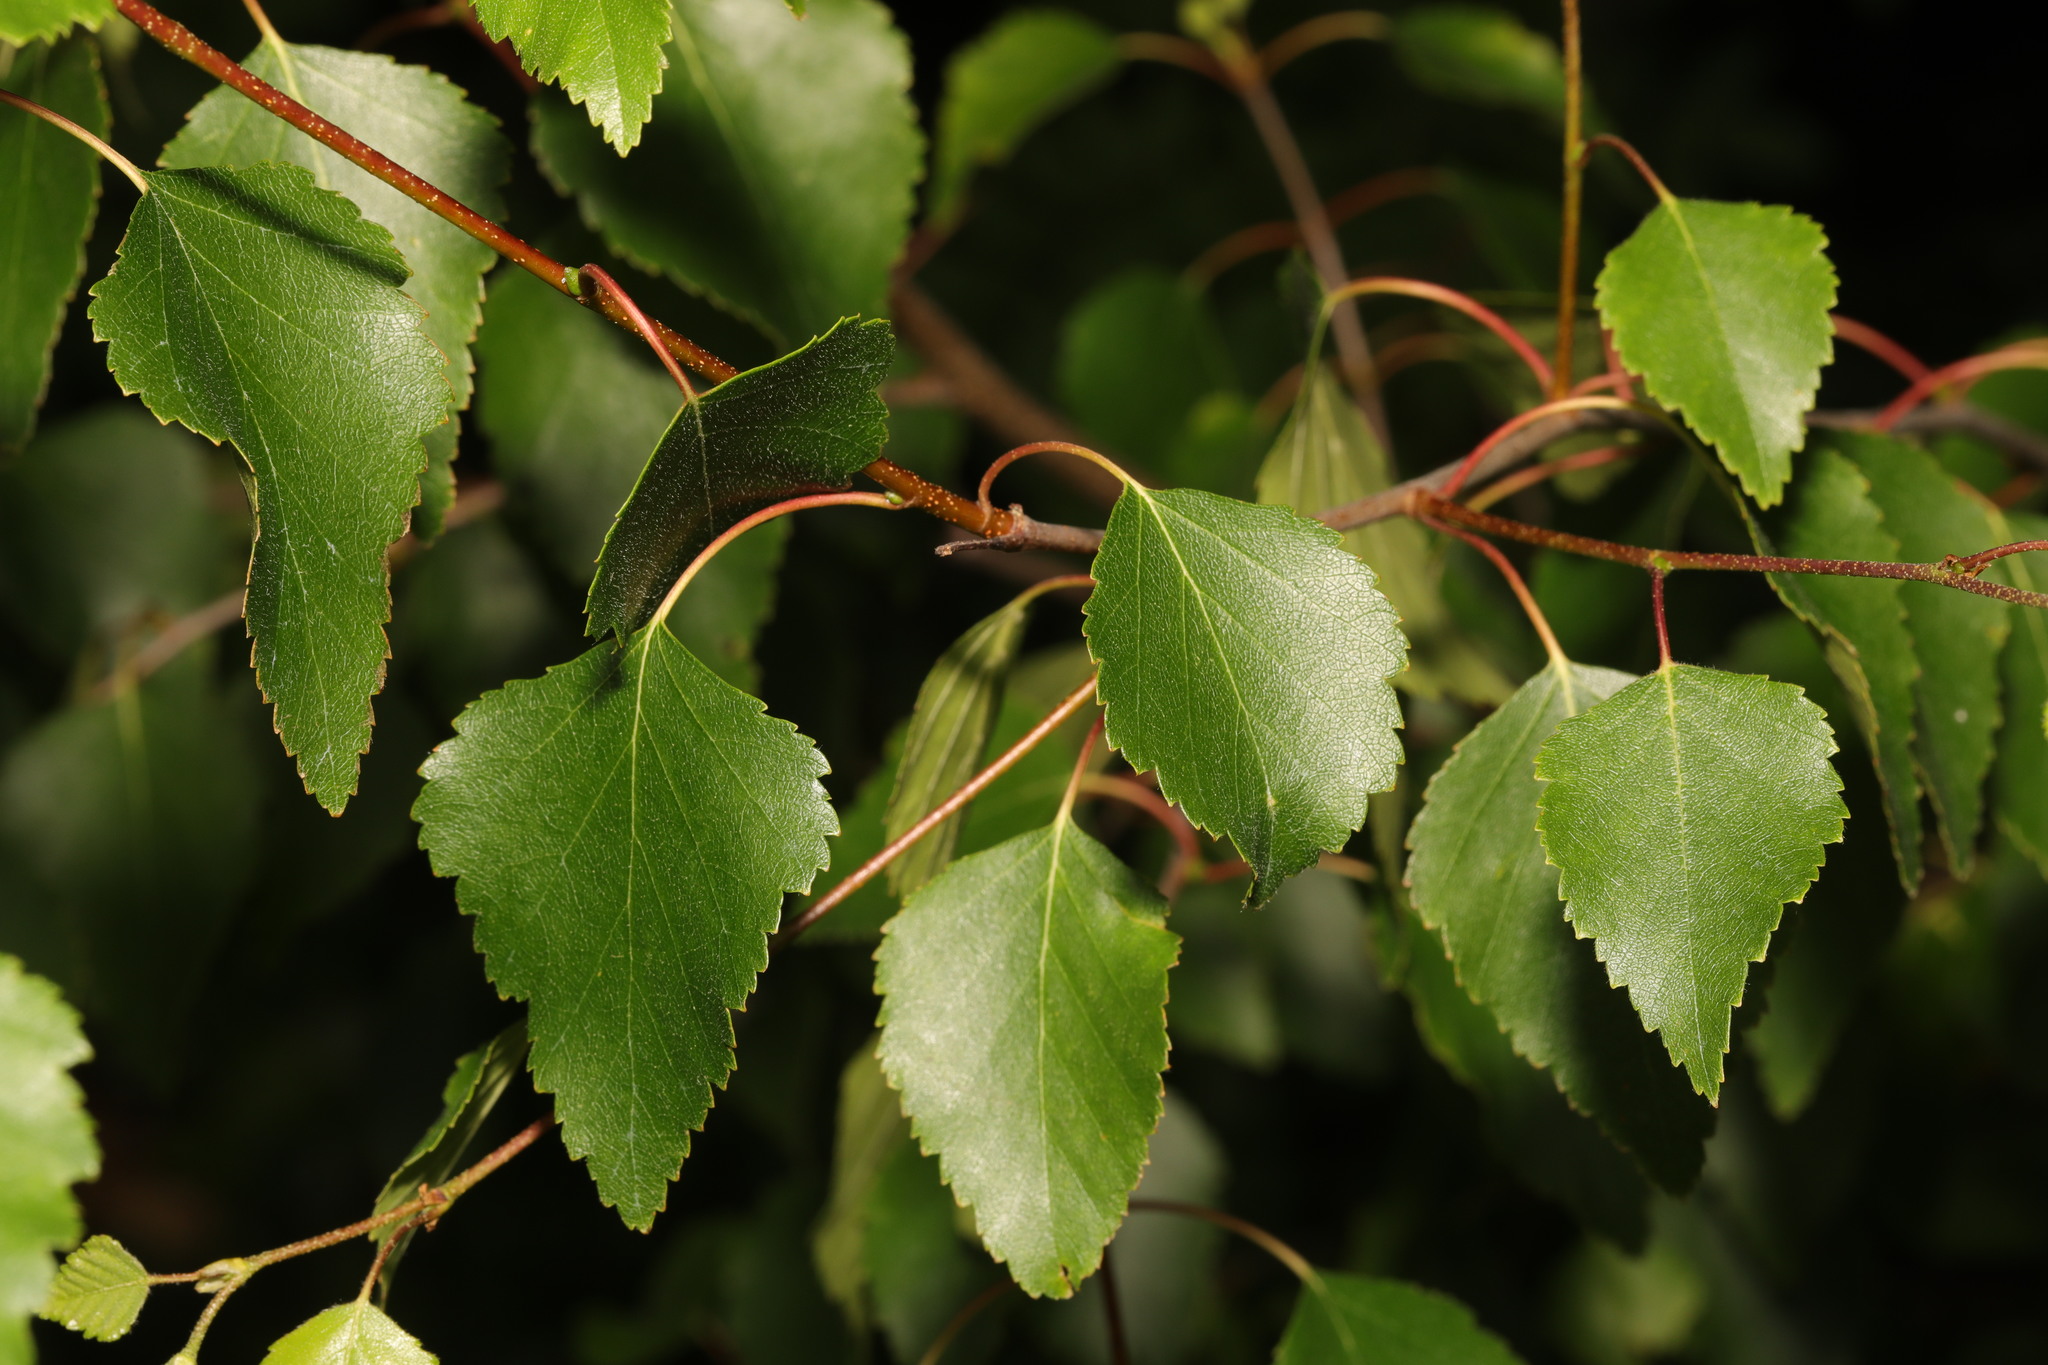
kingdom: Plantae
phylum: Tracheophyta
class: Magnoliopsida
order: Fagales
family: Betulaceae
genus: Betula
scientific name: Betula pendula
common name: Silver birch
